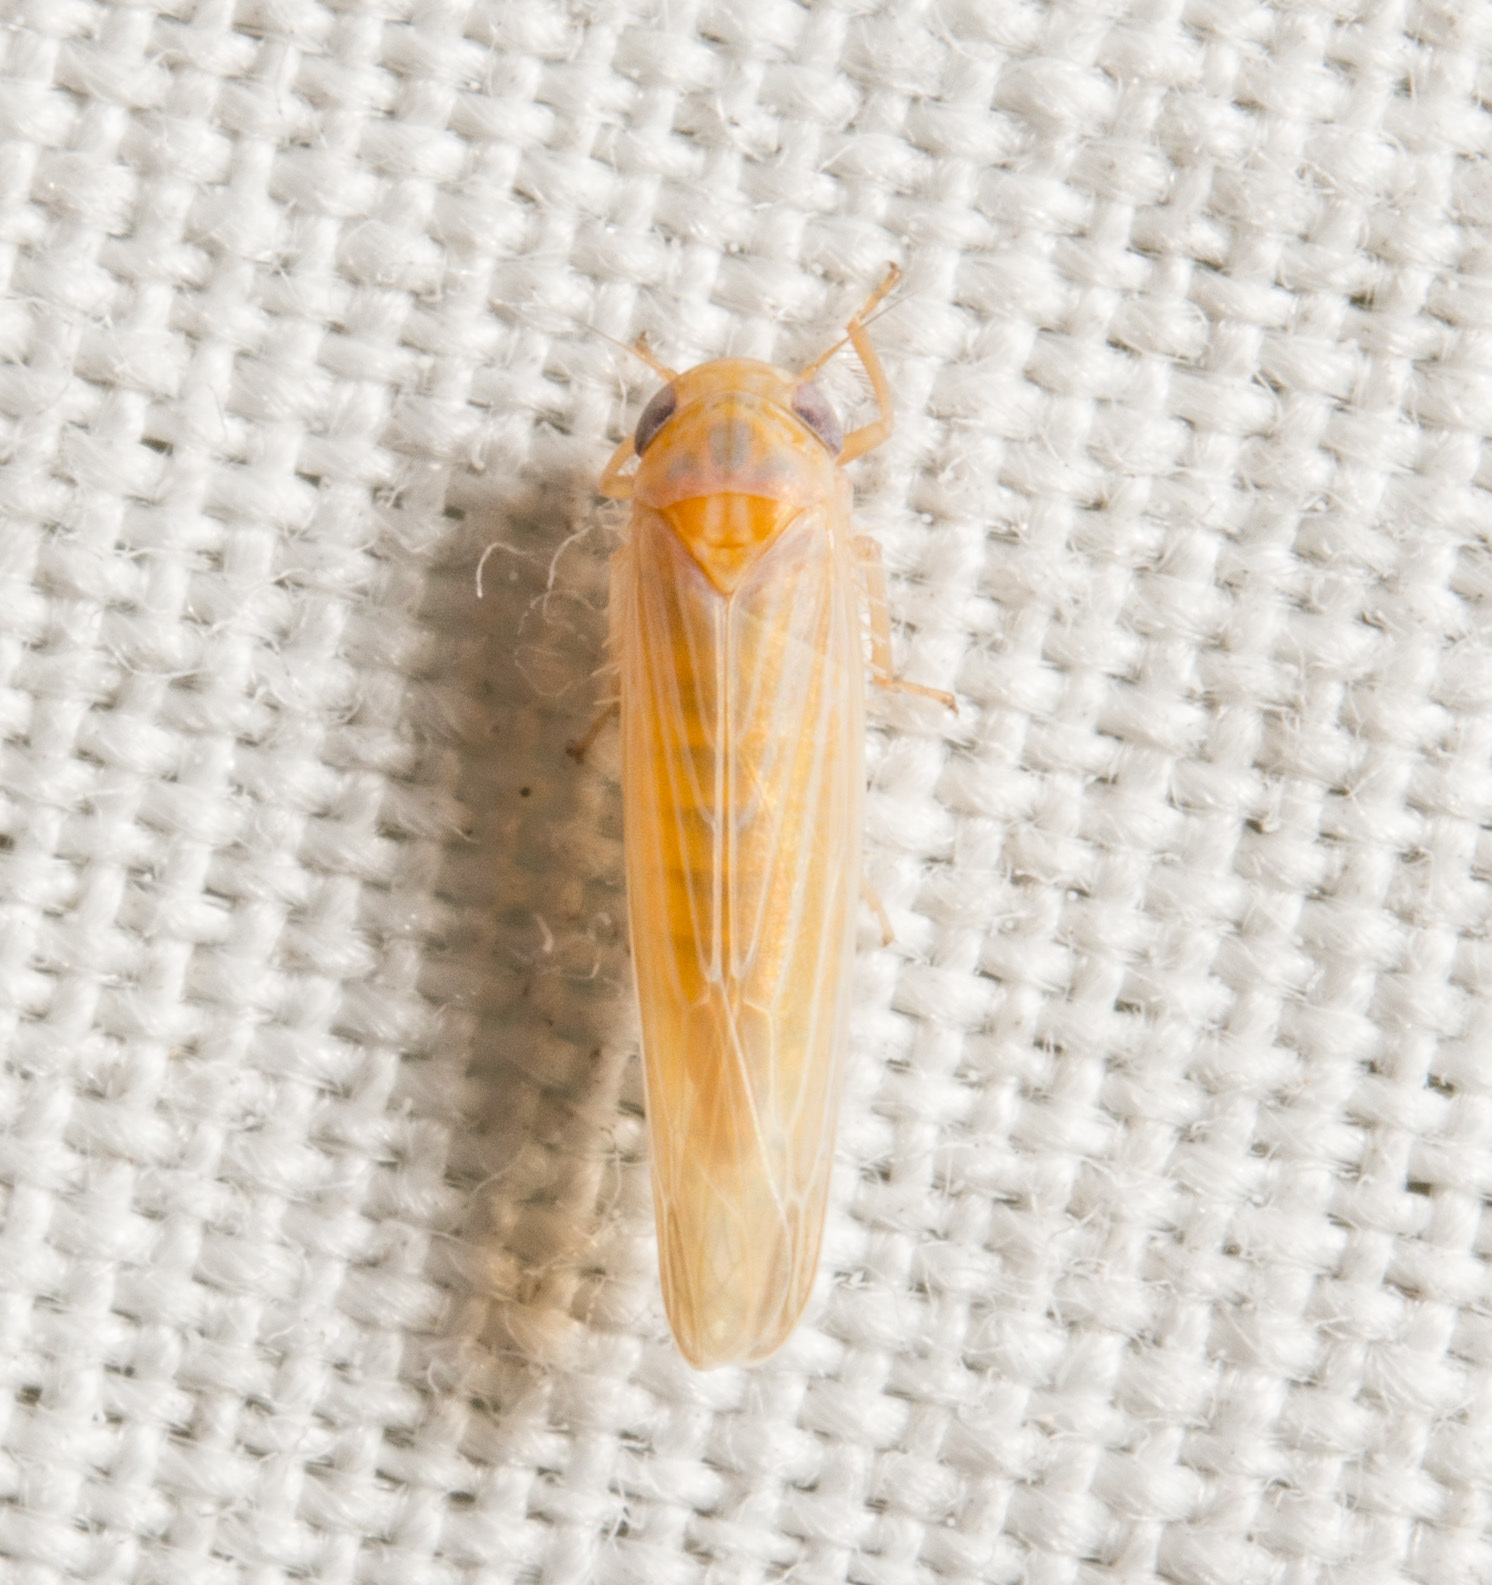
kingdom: Animalia
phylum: Arthropoda
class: Insecta
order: Hemiptera
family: Cicadellidae
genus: Balclutha
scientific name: Balclutha
